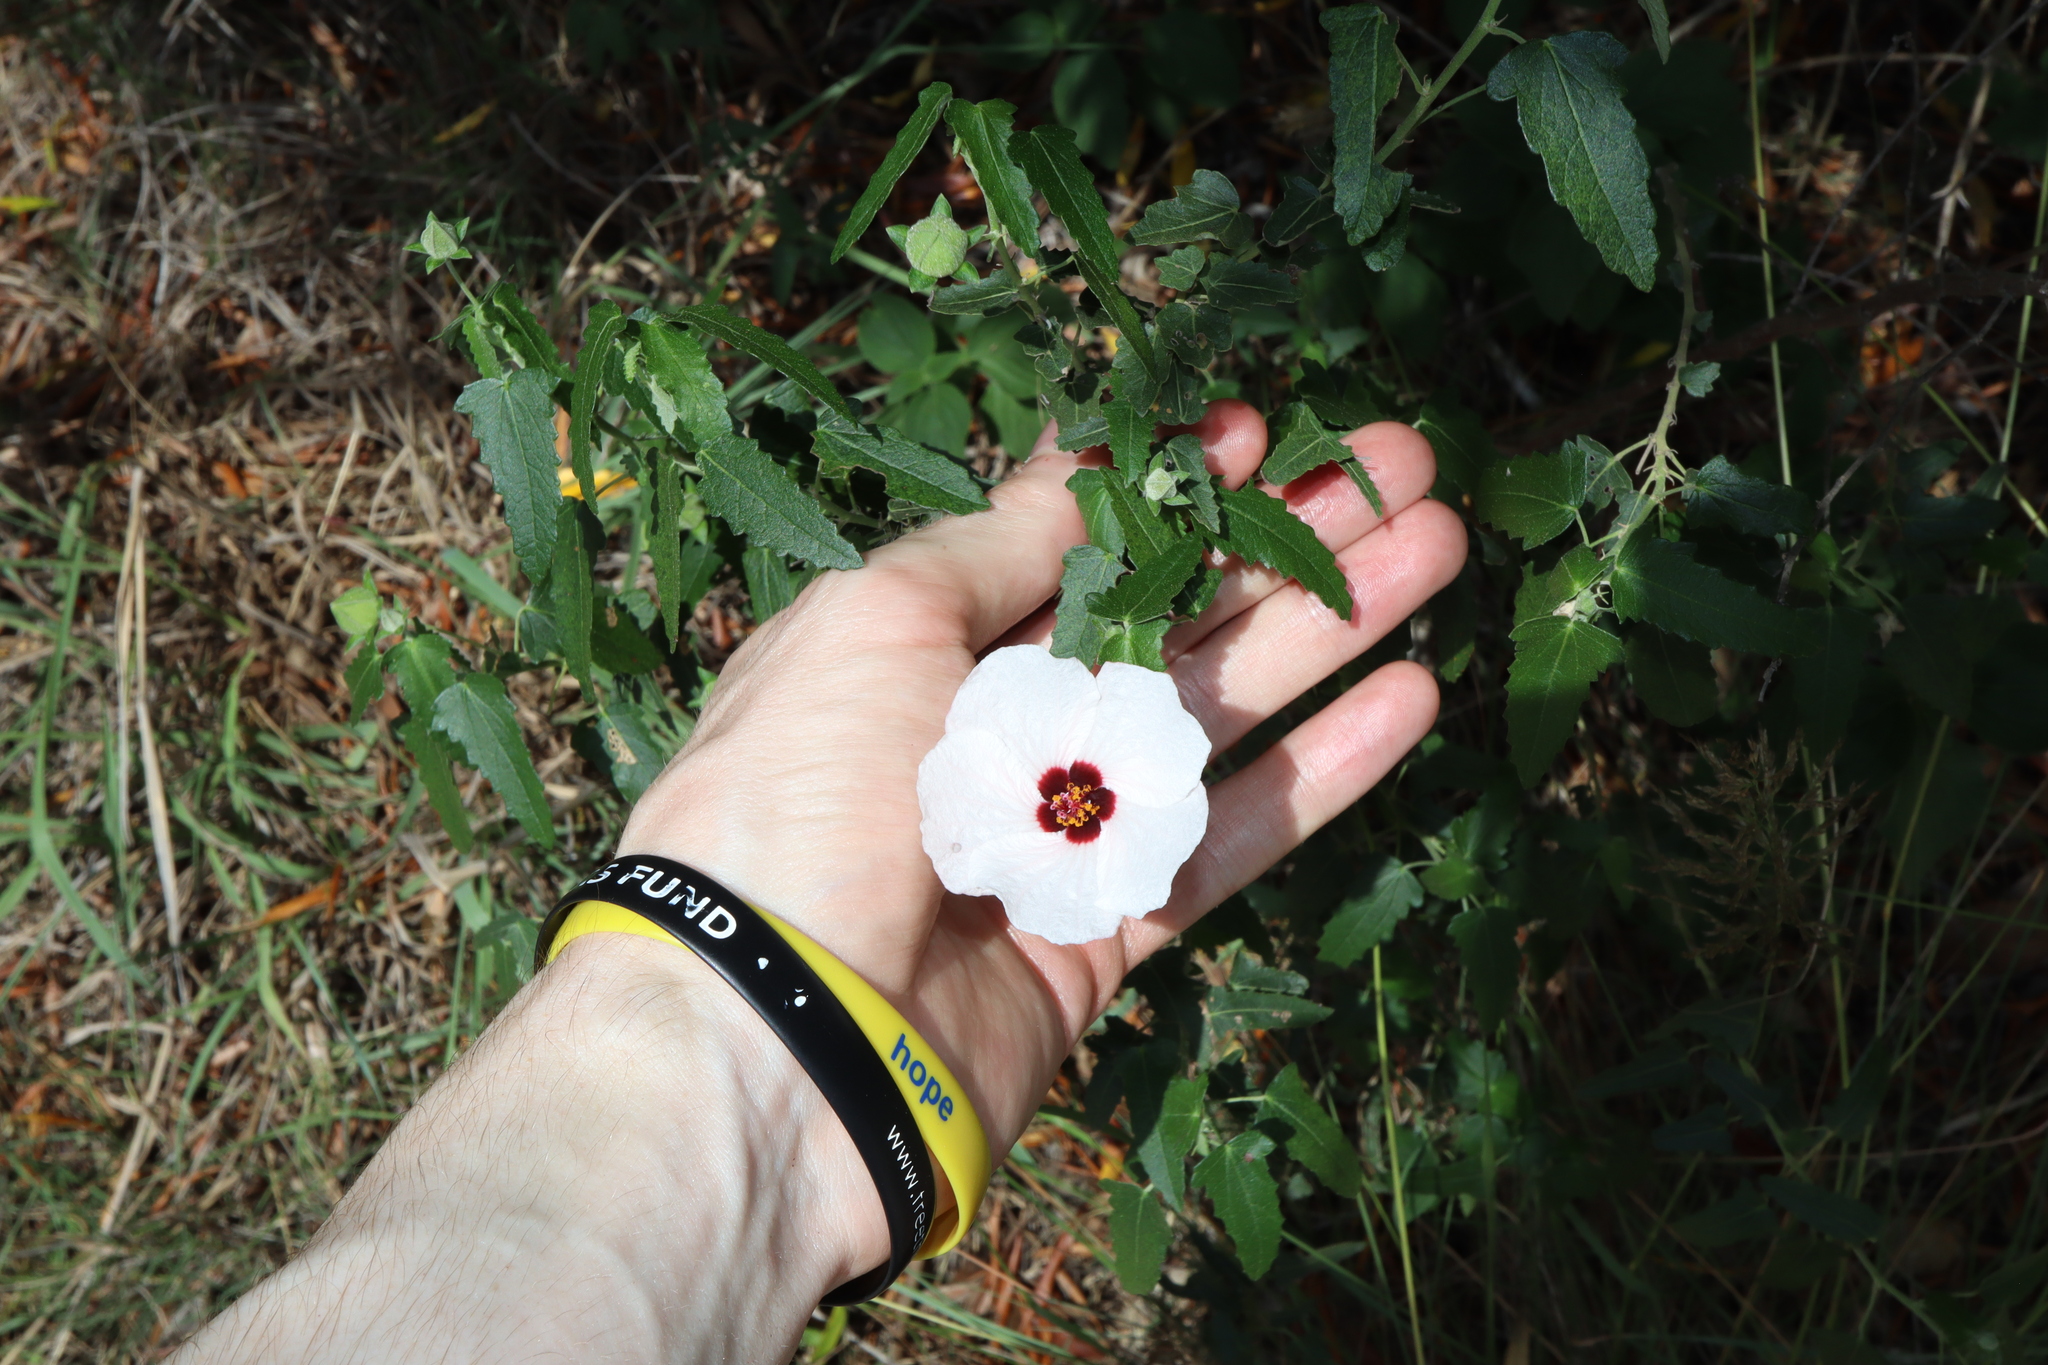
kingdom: Plantae
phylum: Tracheophyta
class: Magnoliopsida
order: Malvales
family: Malvaceae
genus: Pavonia
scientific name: Pavonia hastata
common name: Spearleaf swampmallow
